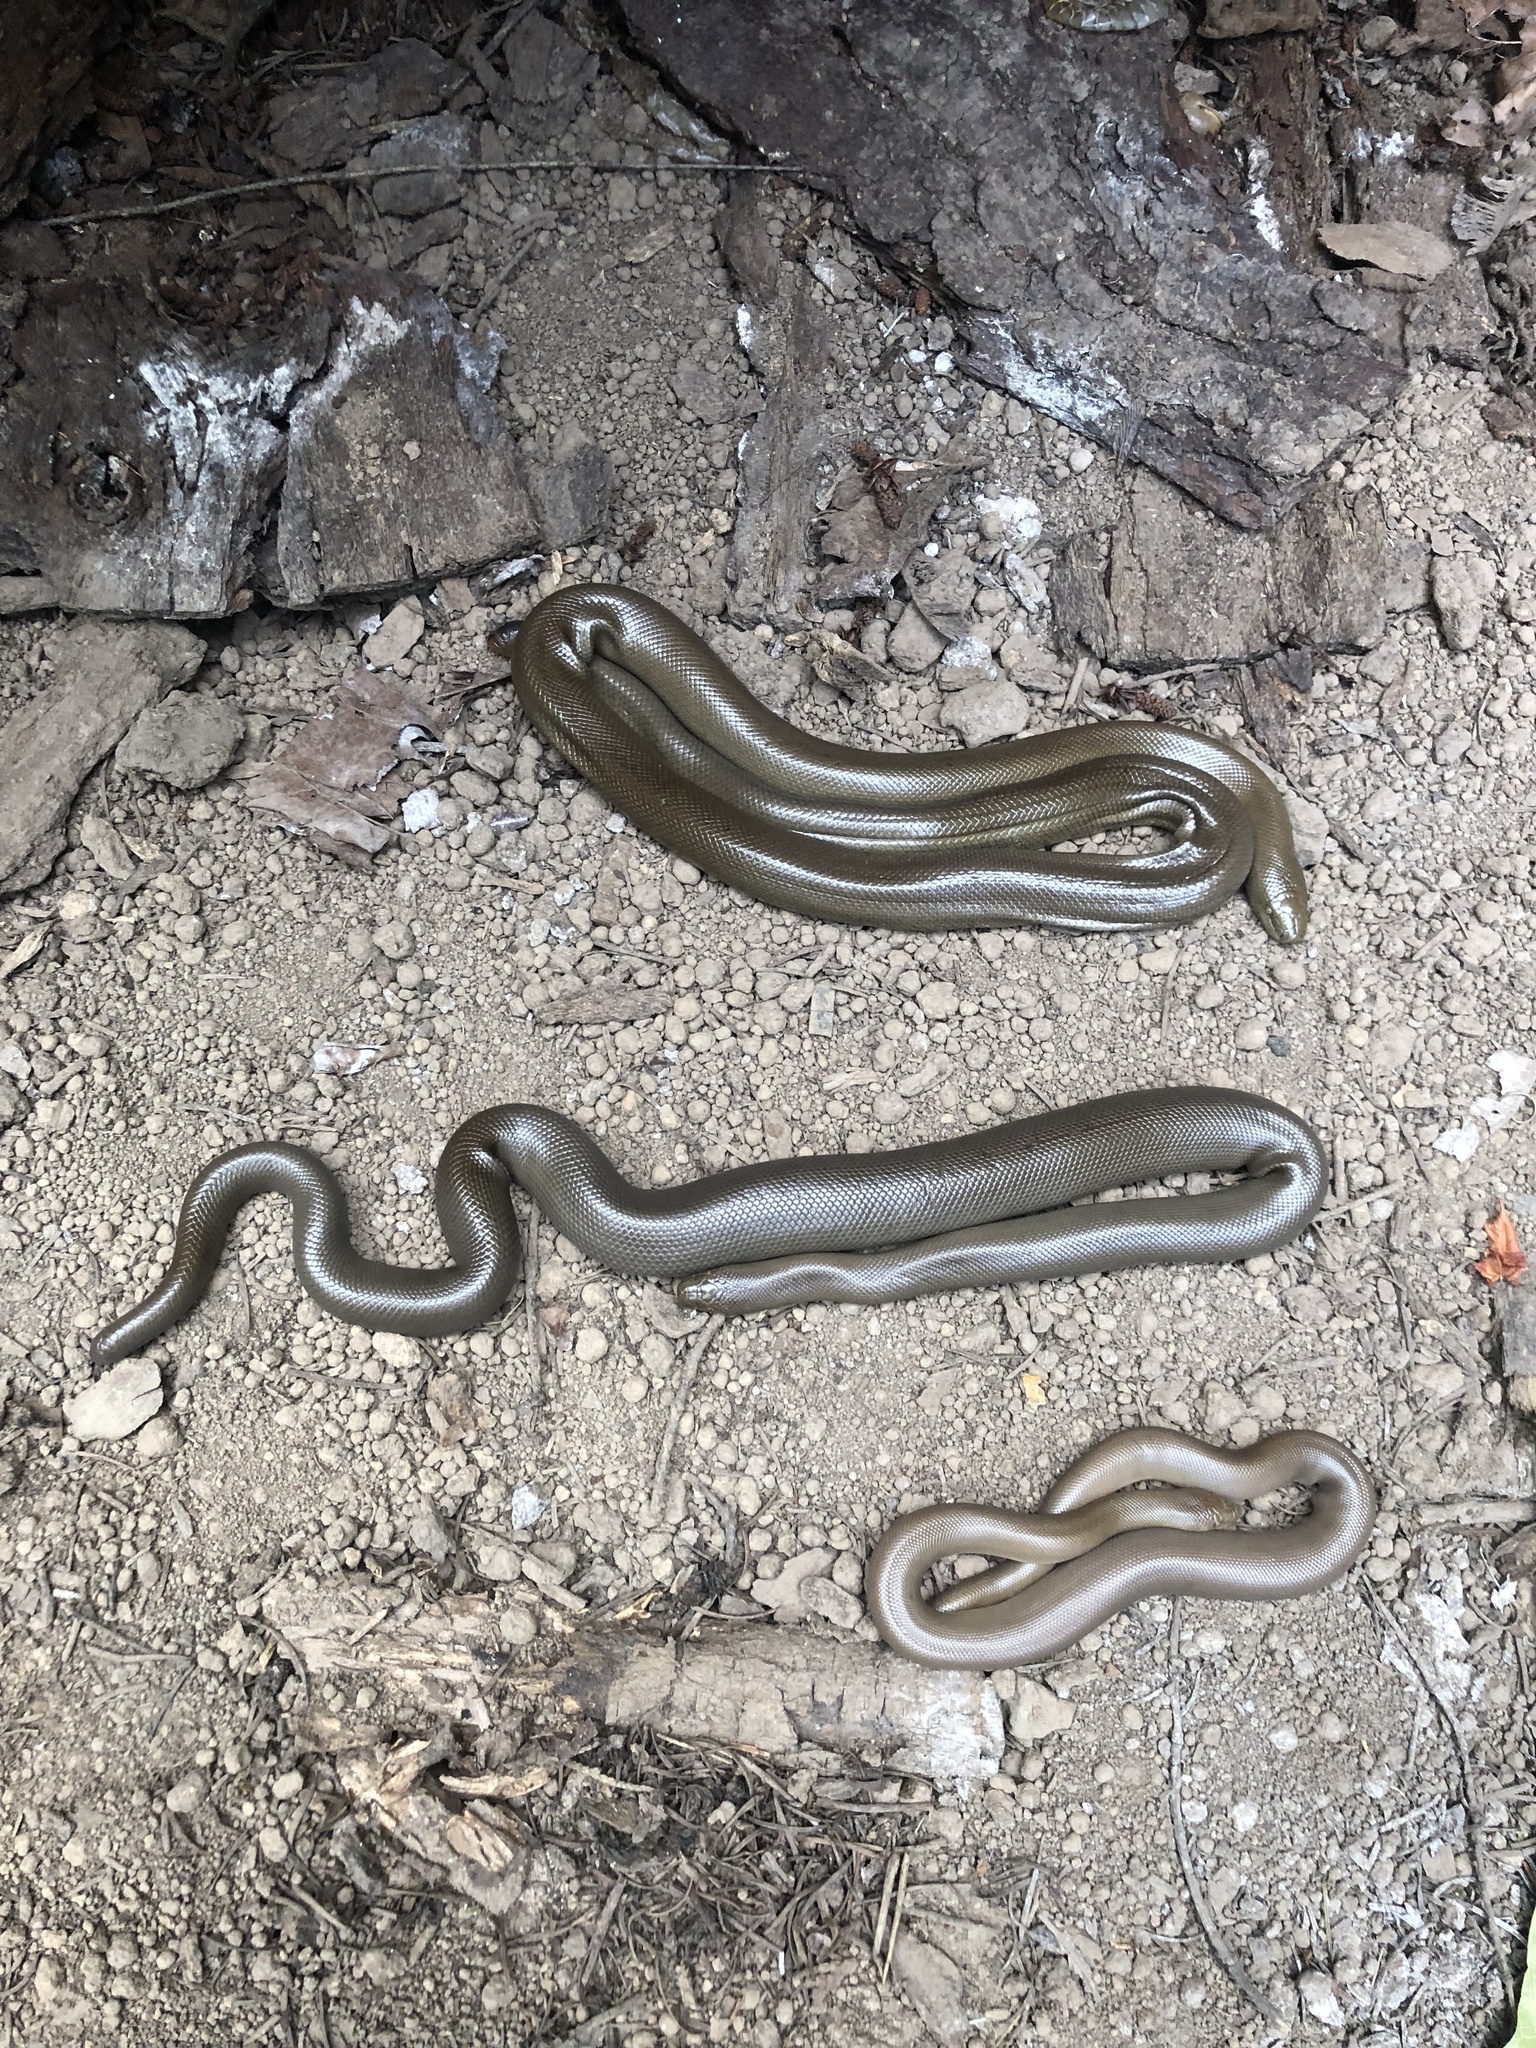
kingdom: Animalia
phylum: Chordata
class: Squamata
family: Boidae
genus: Charina
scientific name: Charina bottae
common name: Northern rubber boa
